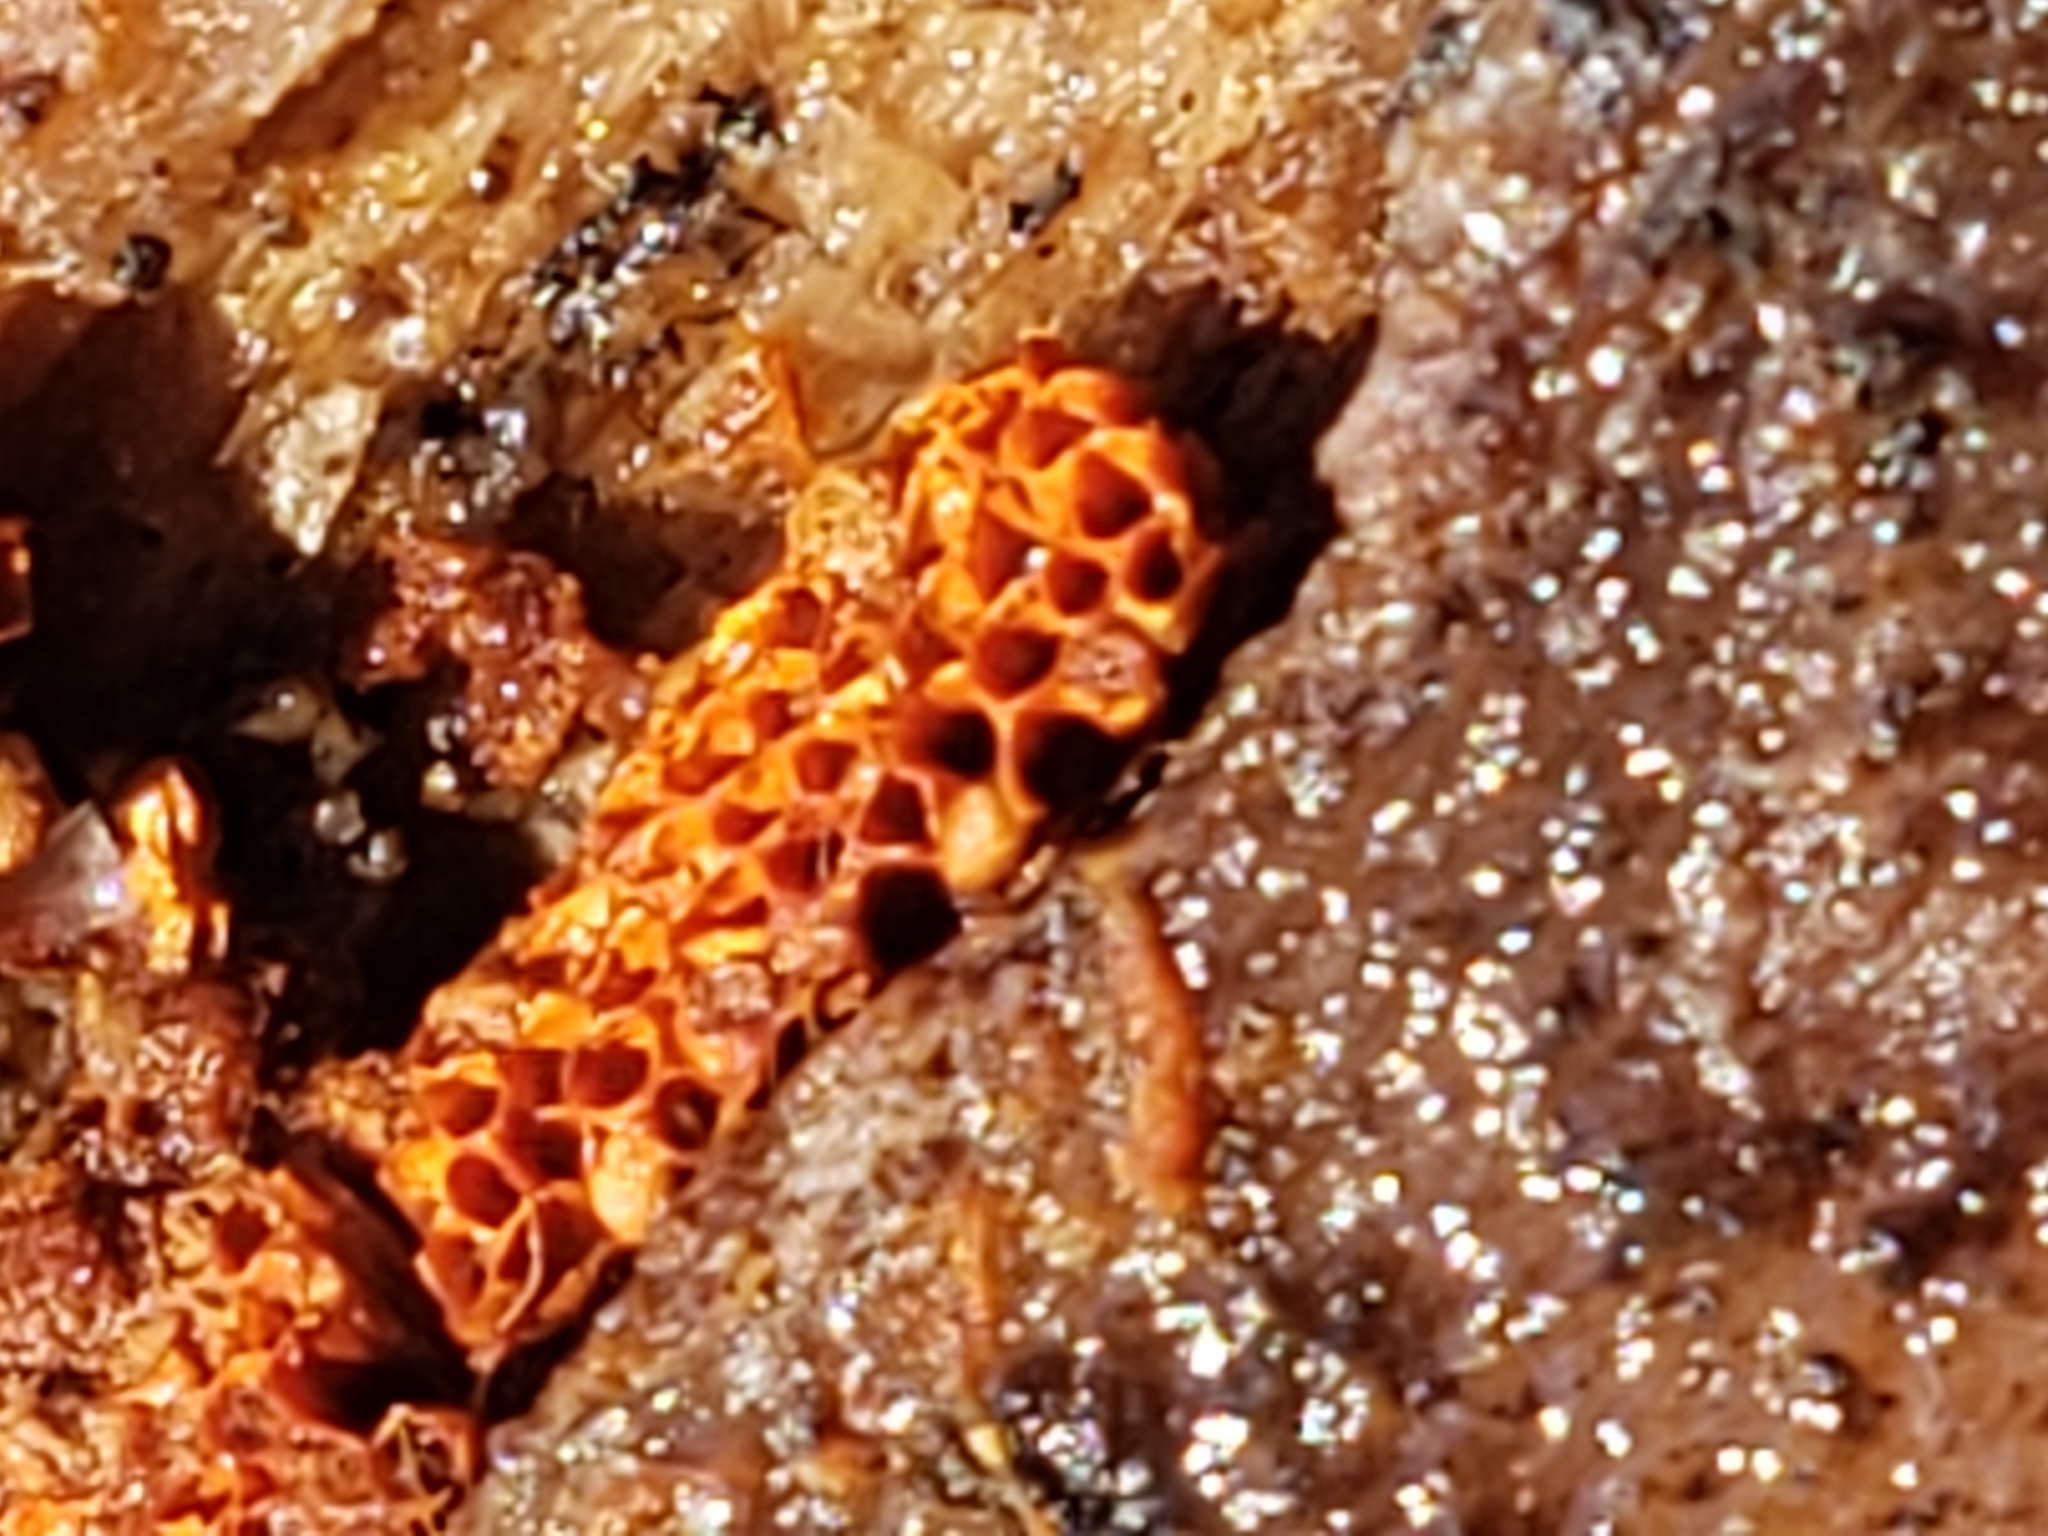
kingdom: Protozoa
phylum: Mycetozoa
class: Myxomycetes
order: Trichiales
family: Trichiaceae
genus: Metatrichia
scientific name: Metatrichia vesparia
